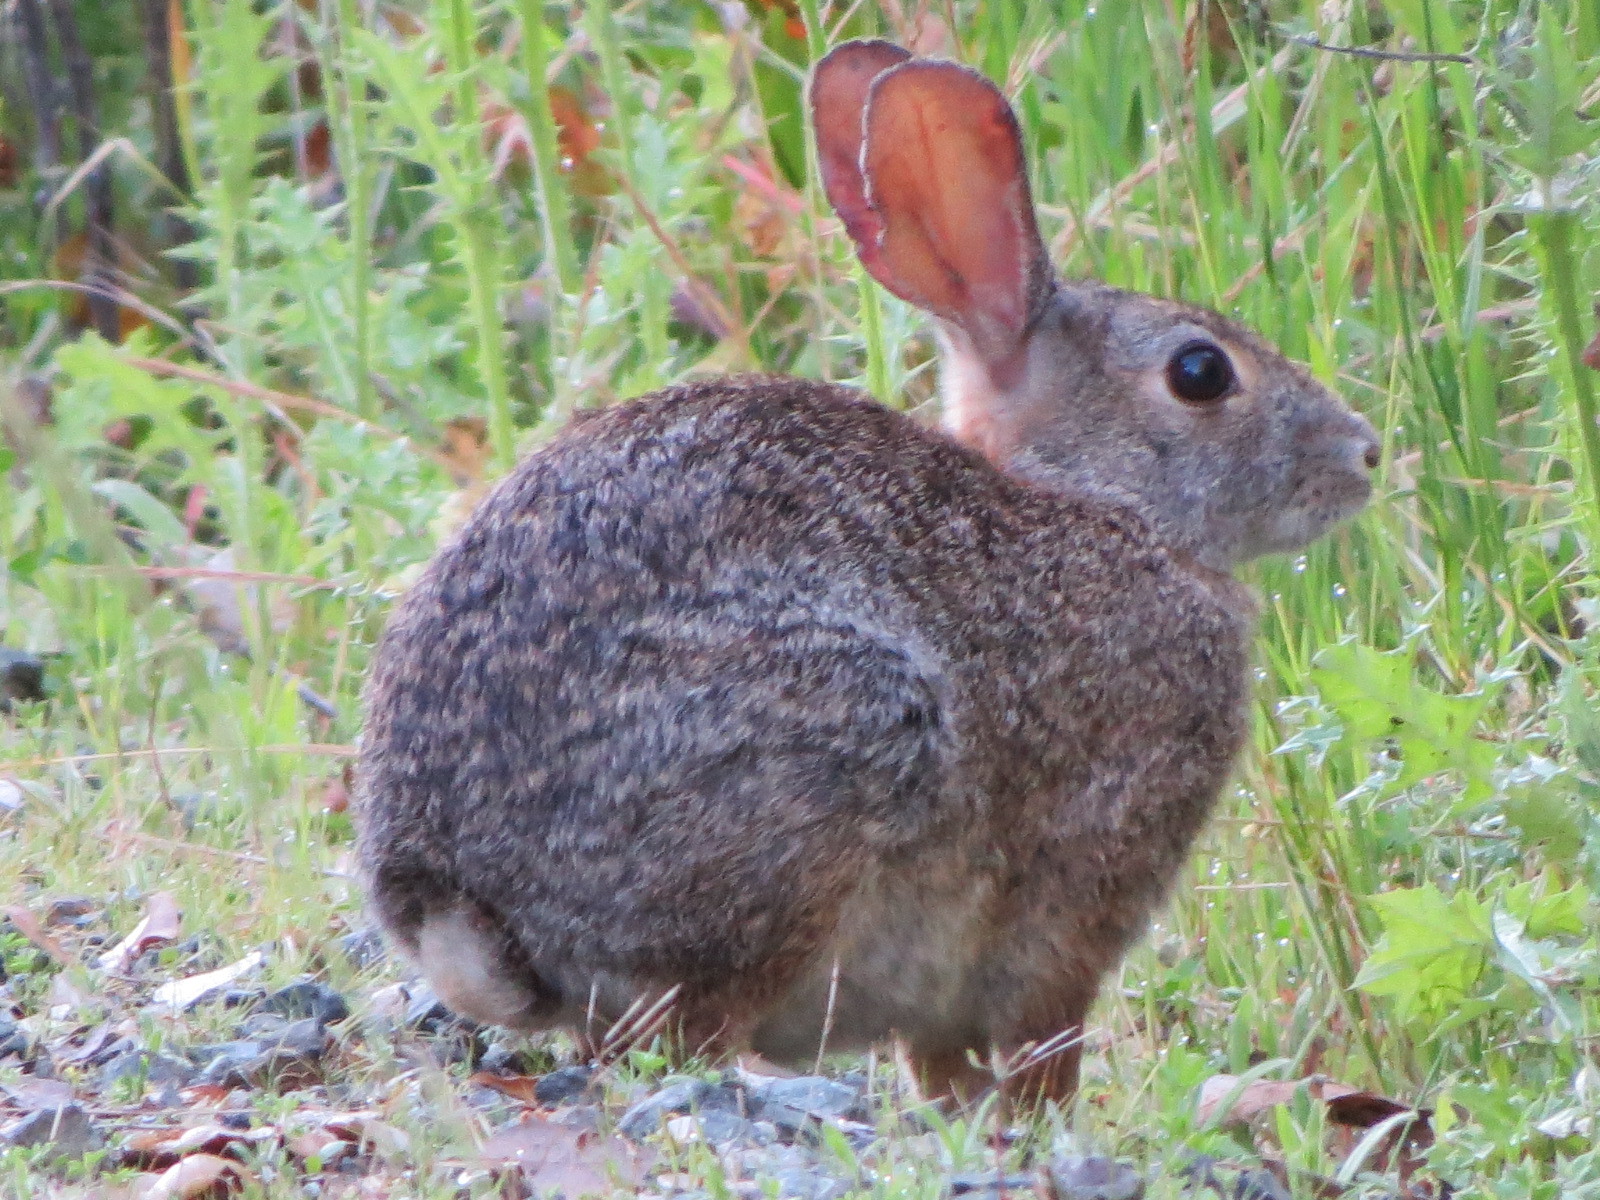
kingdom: Animalia
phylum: Chordata
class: Mammalia
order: Lagomorpha
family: Leporidae
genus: Sylvilagus
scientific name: Sylvilagus bachmani
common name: Brush rabbit
